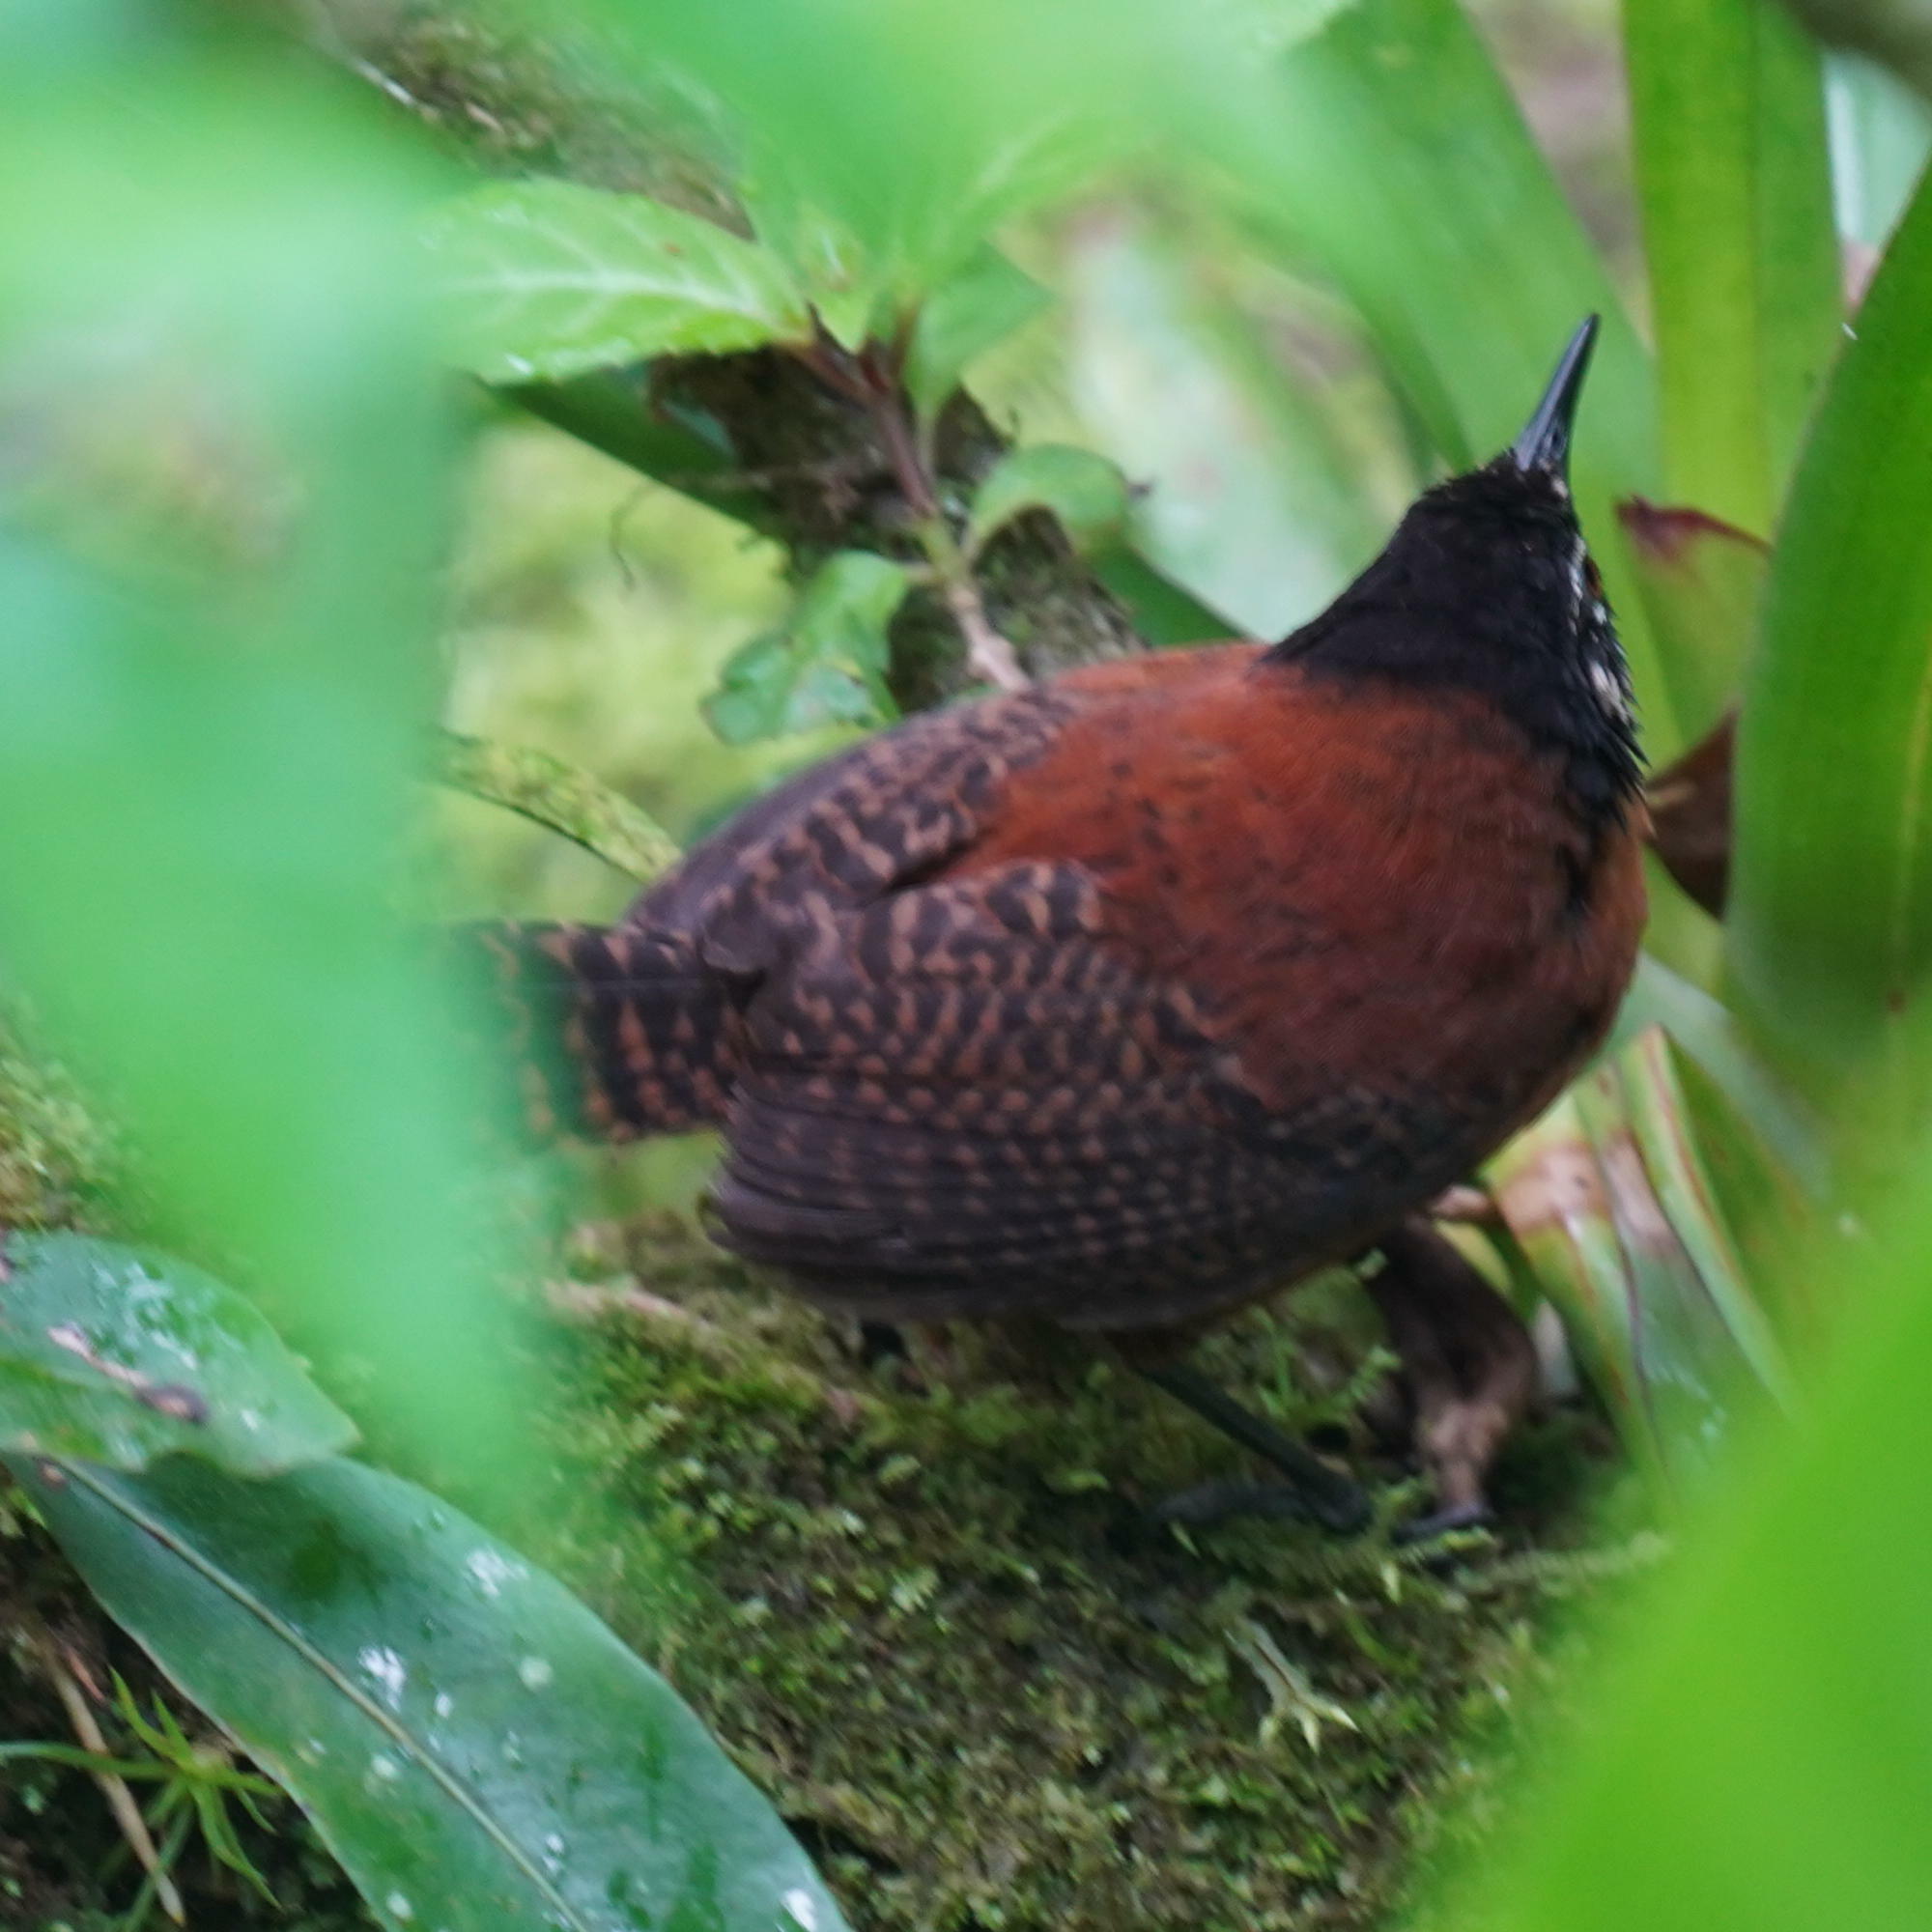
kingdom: Animalia
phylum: Chordata
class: Aves
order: Passeriformes
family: Troglodytidae
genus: Cantorchilus
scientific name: Cantorchilus nigricapillus
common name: Bay wren
